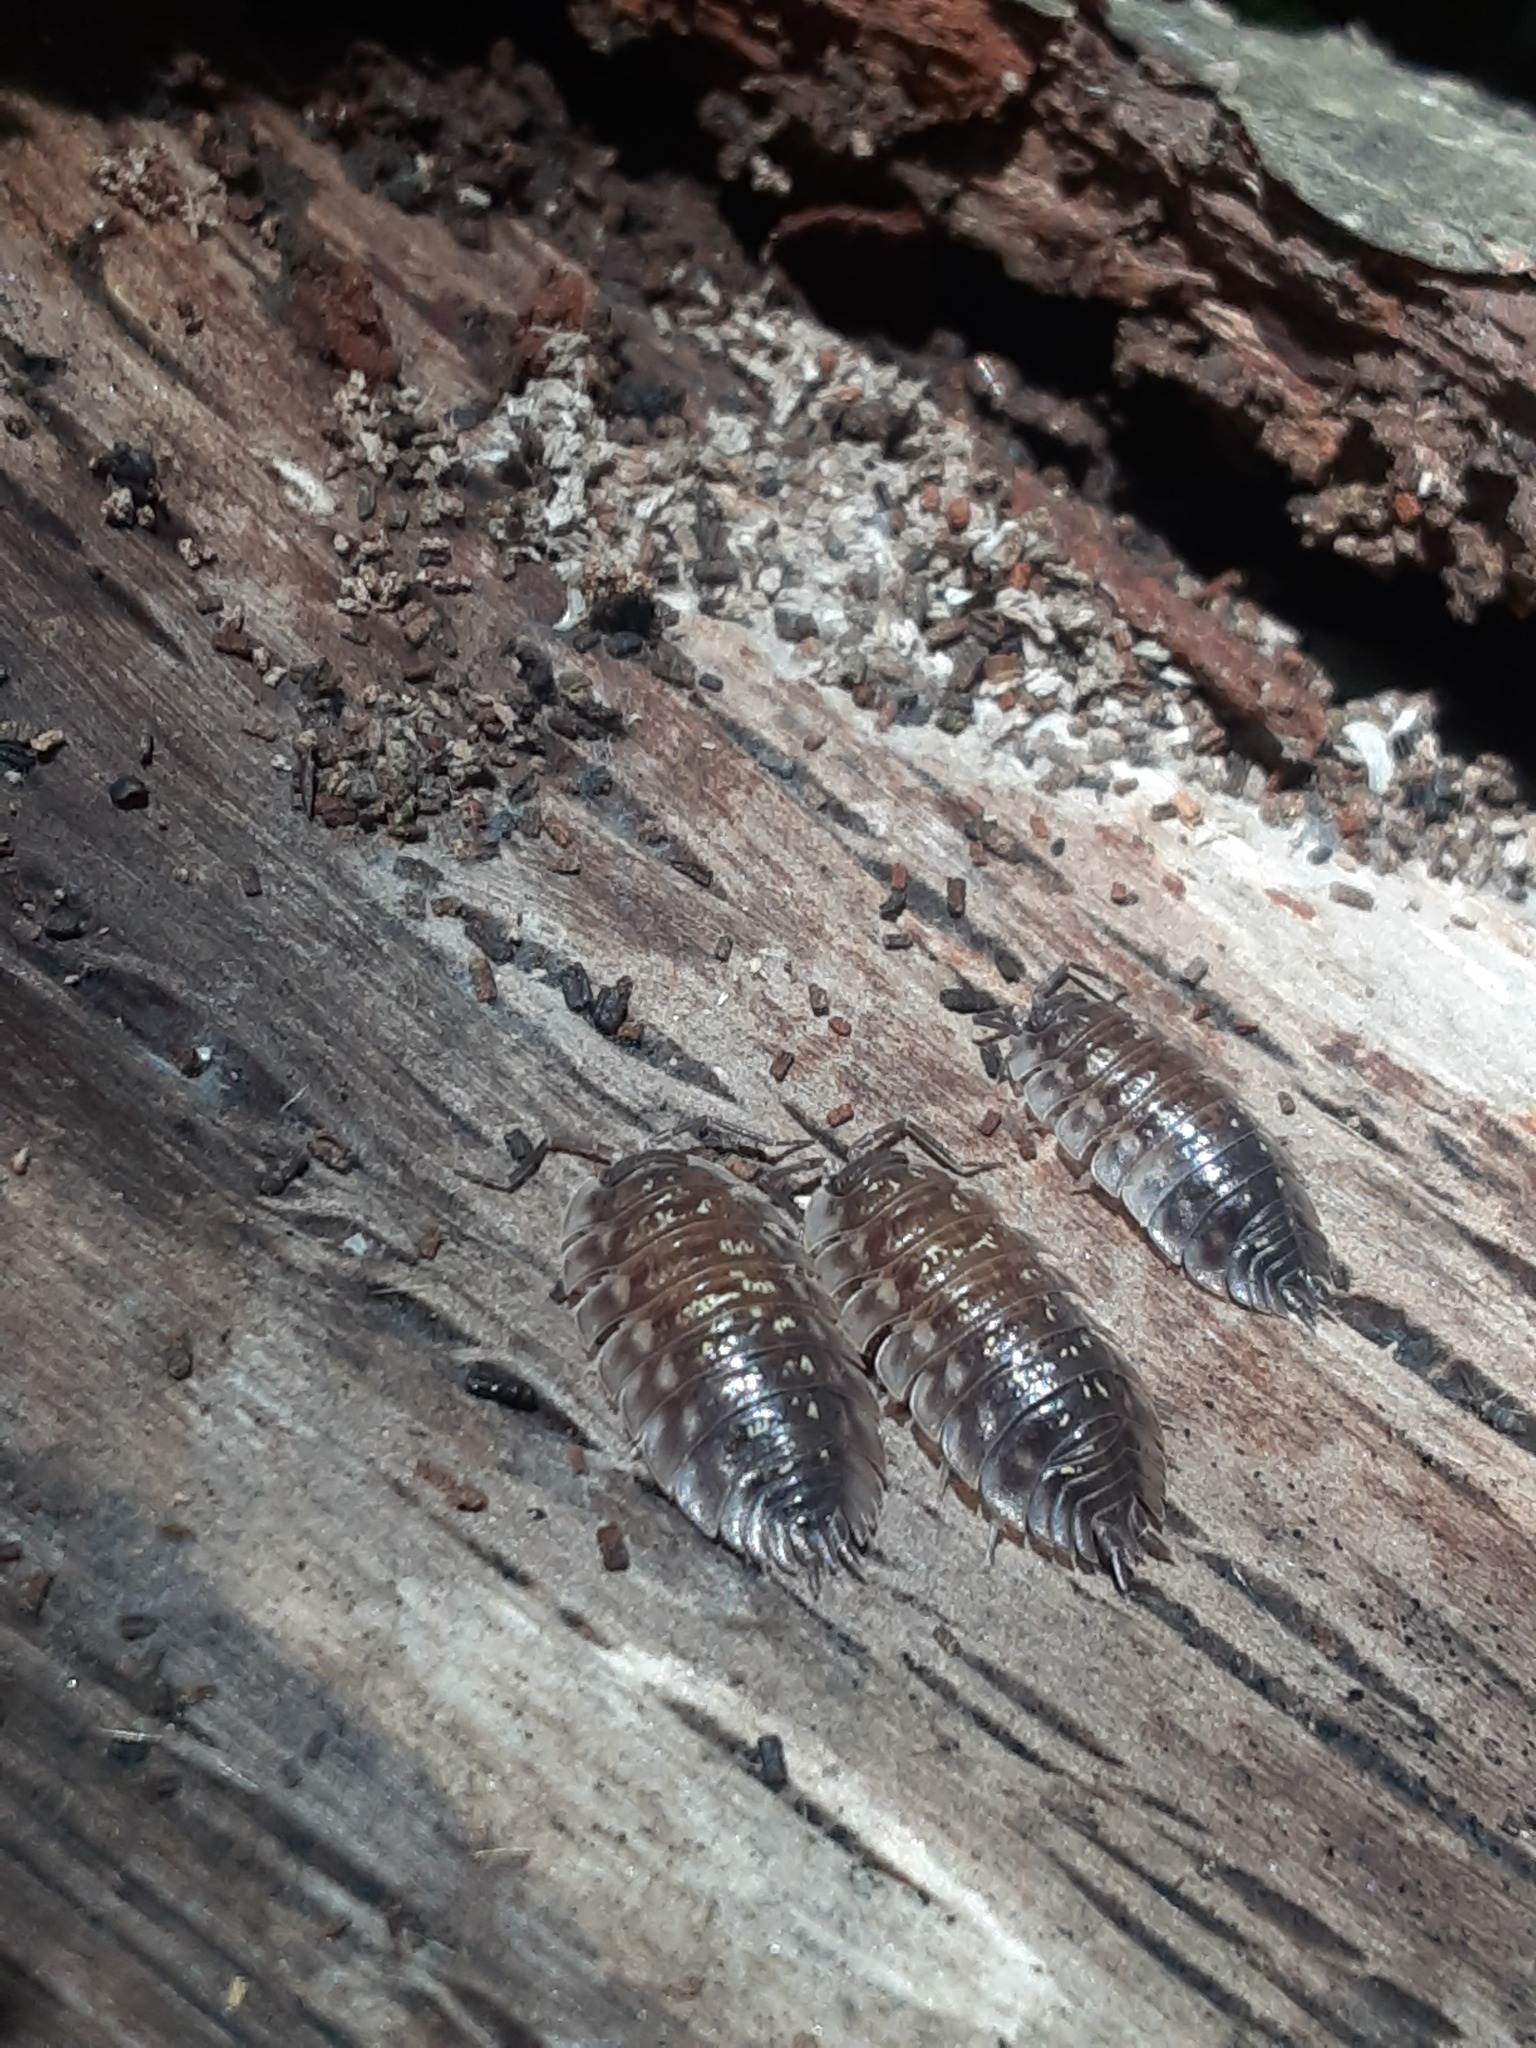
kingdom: Animalia
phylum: Arthropoda
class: Malacostraca
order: Isopoda
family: Oniscidae
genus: Oniscus
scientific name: Oniscus asellus
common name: Common shiny woodlouse
